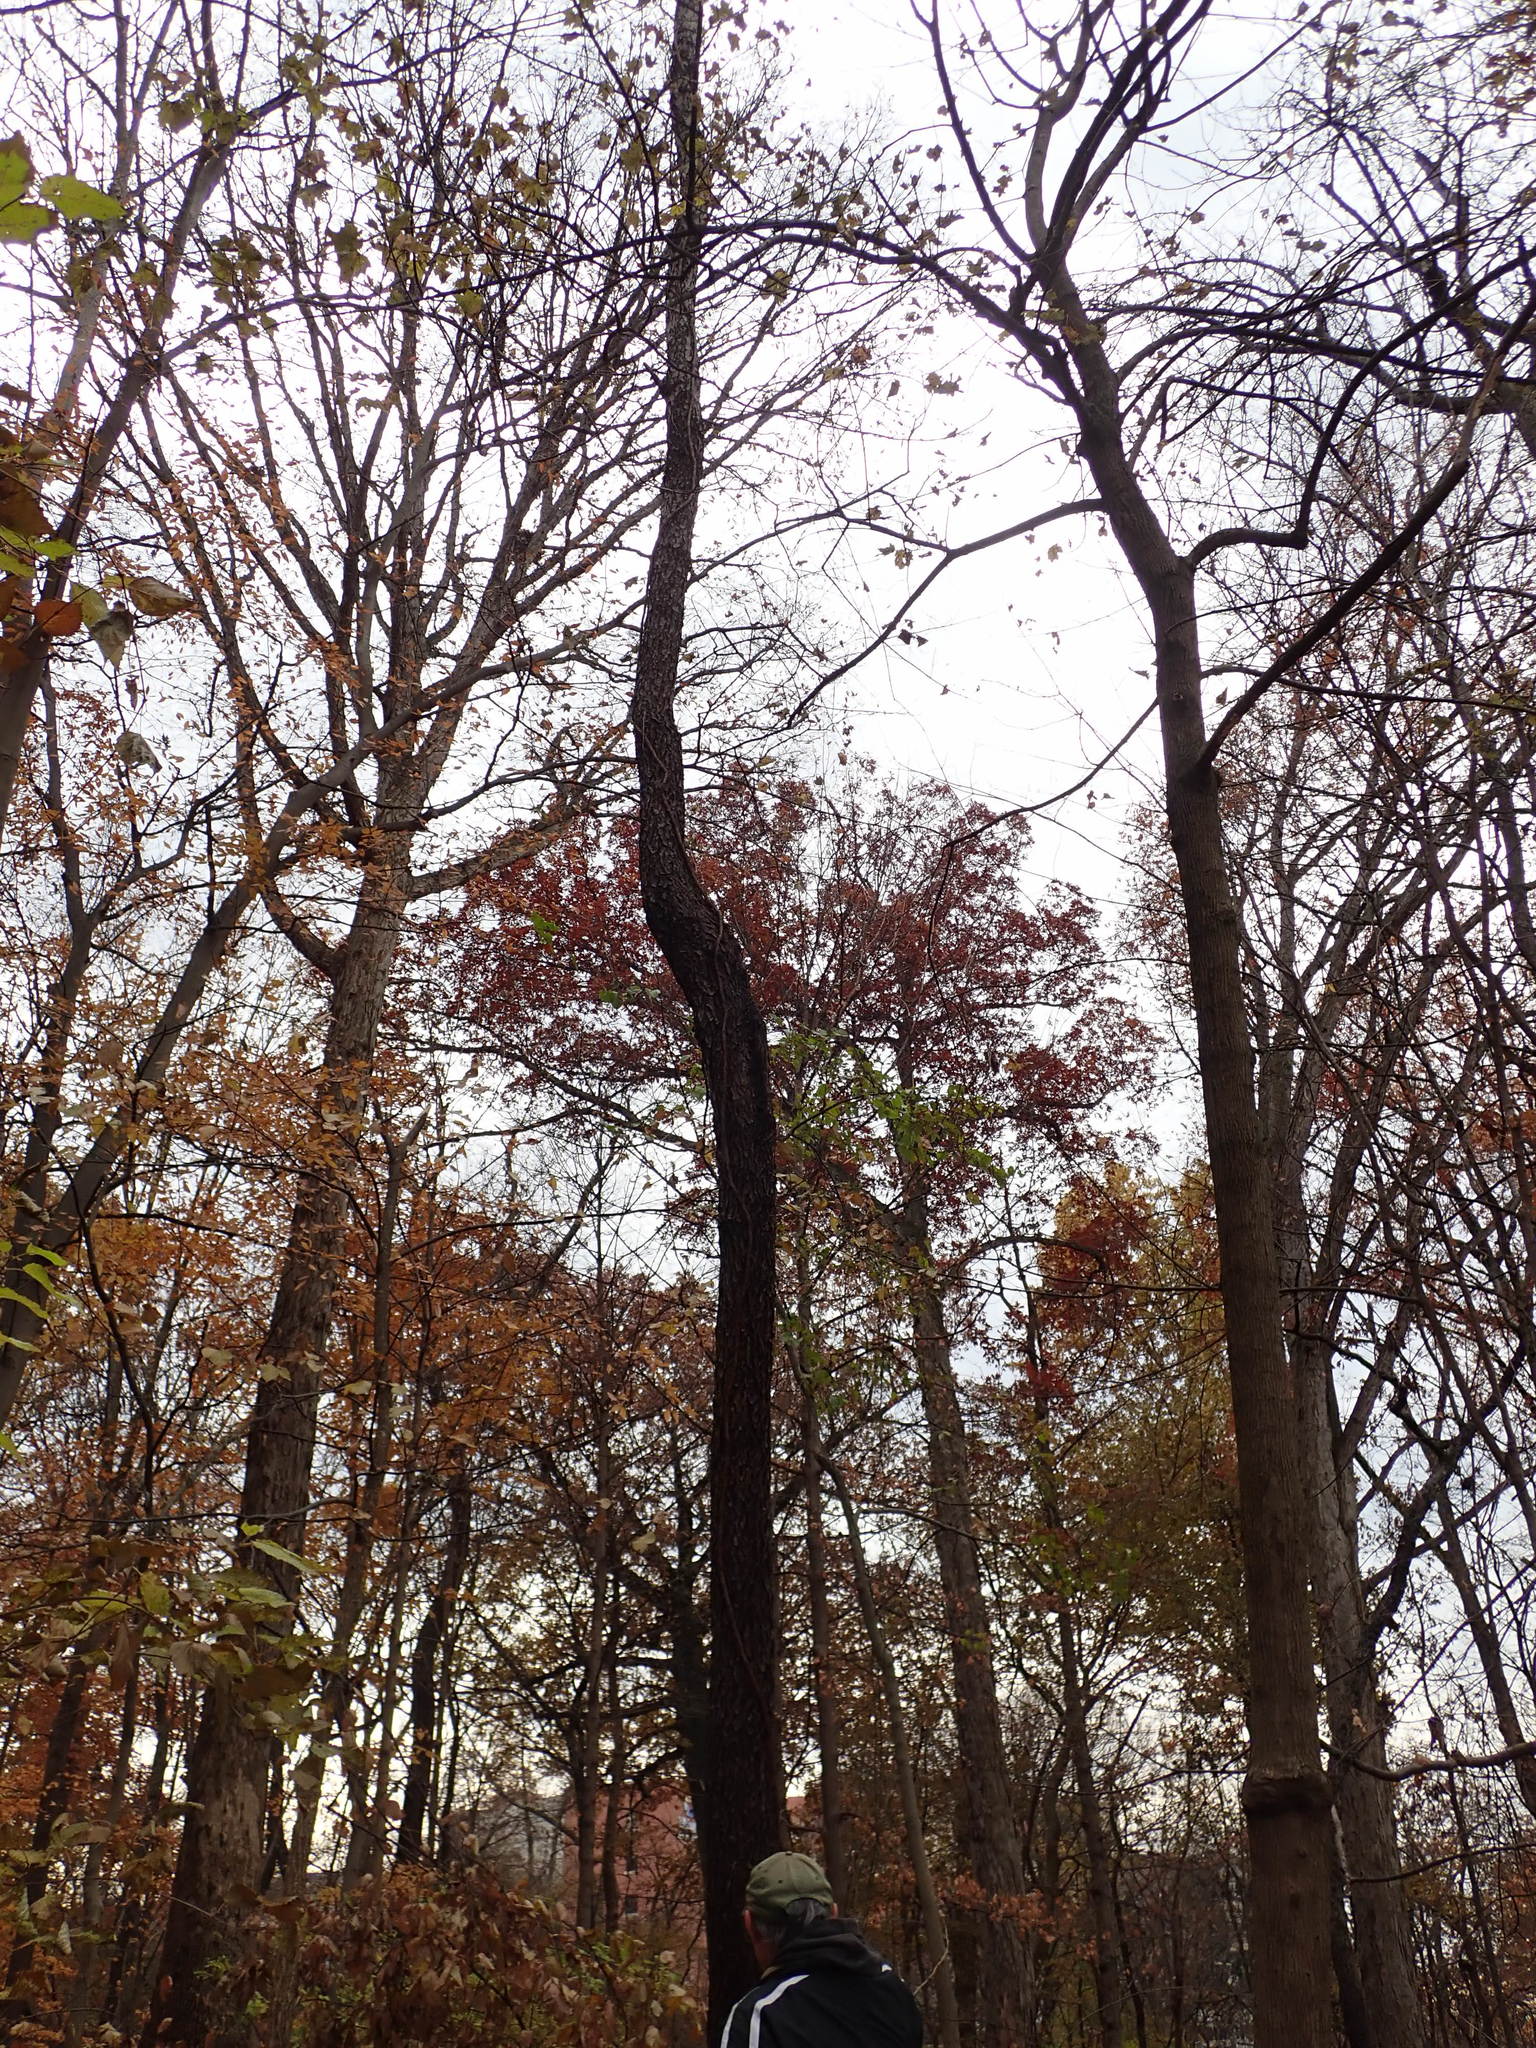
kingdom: Plantae
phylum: Tracheophyta
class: Magnoliopsida
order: Rosales
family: Rosaceae
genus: Prunus
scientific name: Prunus serotina
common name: Black cherry
